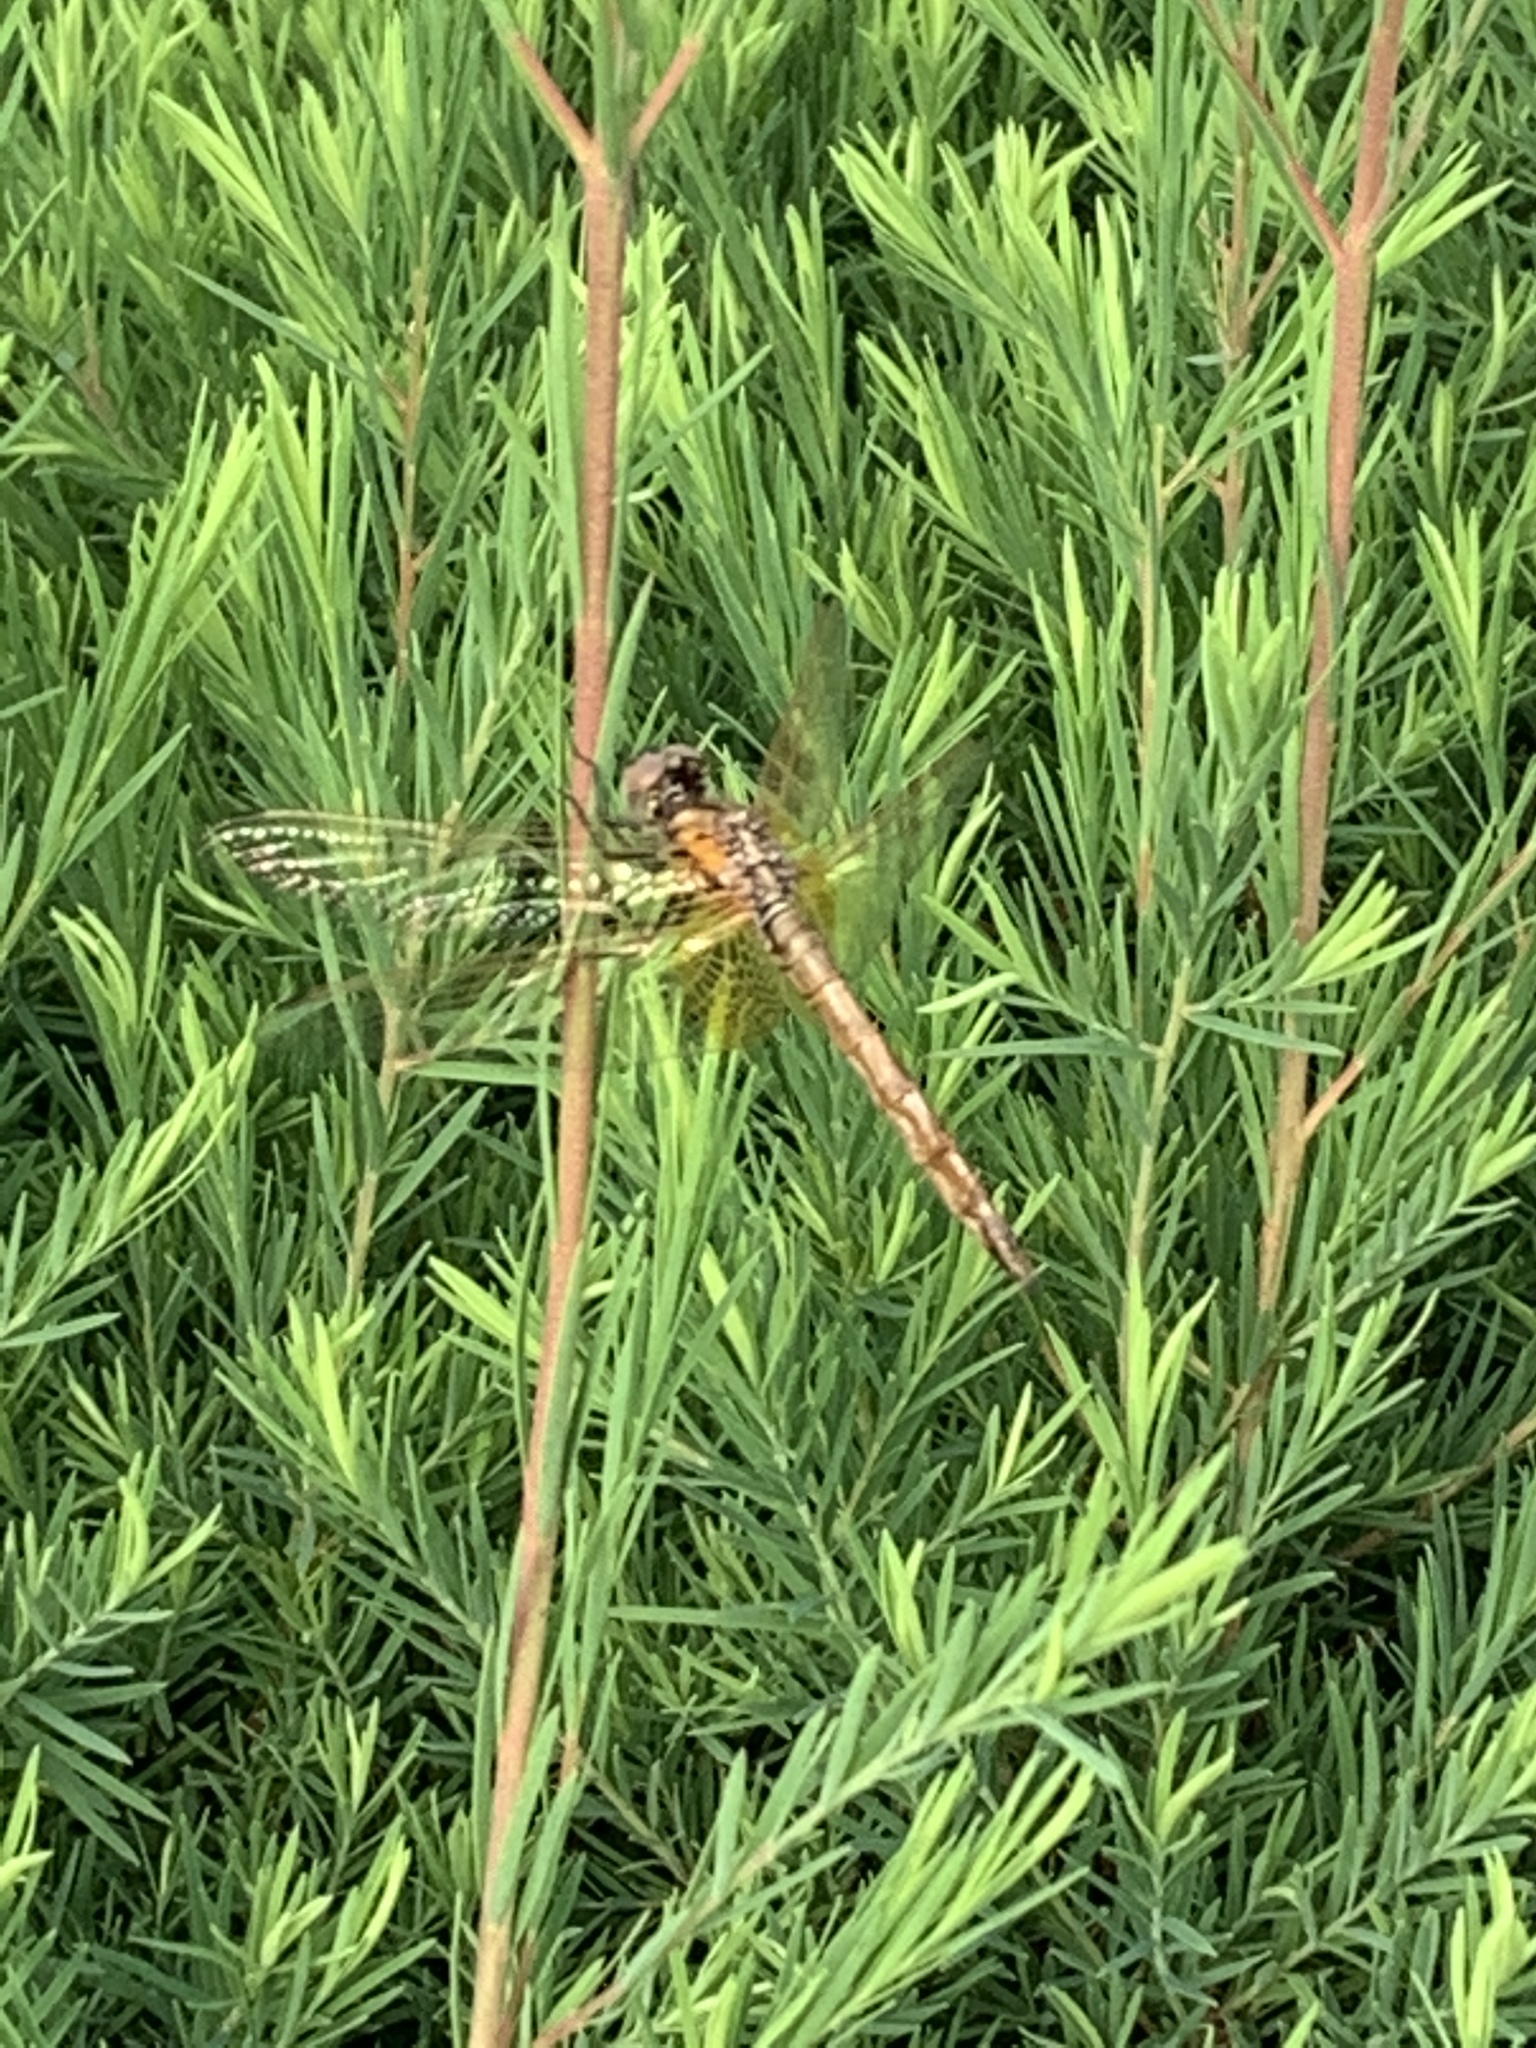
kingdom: Animalia
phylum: Arthropoda
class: Insecta
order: Odonata
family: Libellulidae
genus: Trithemis
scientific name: Trithemis aurora
